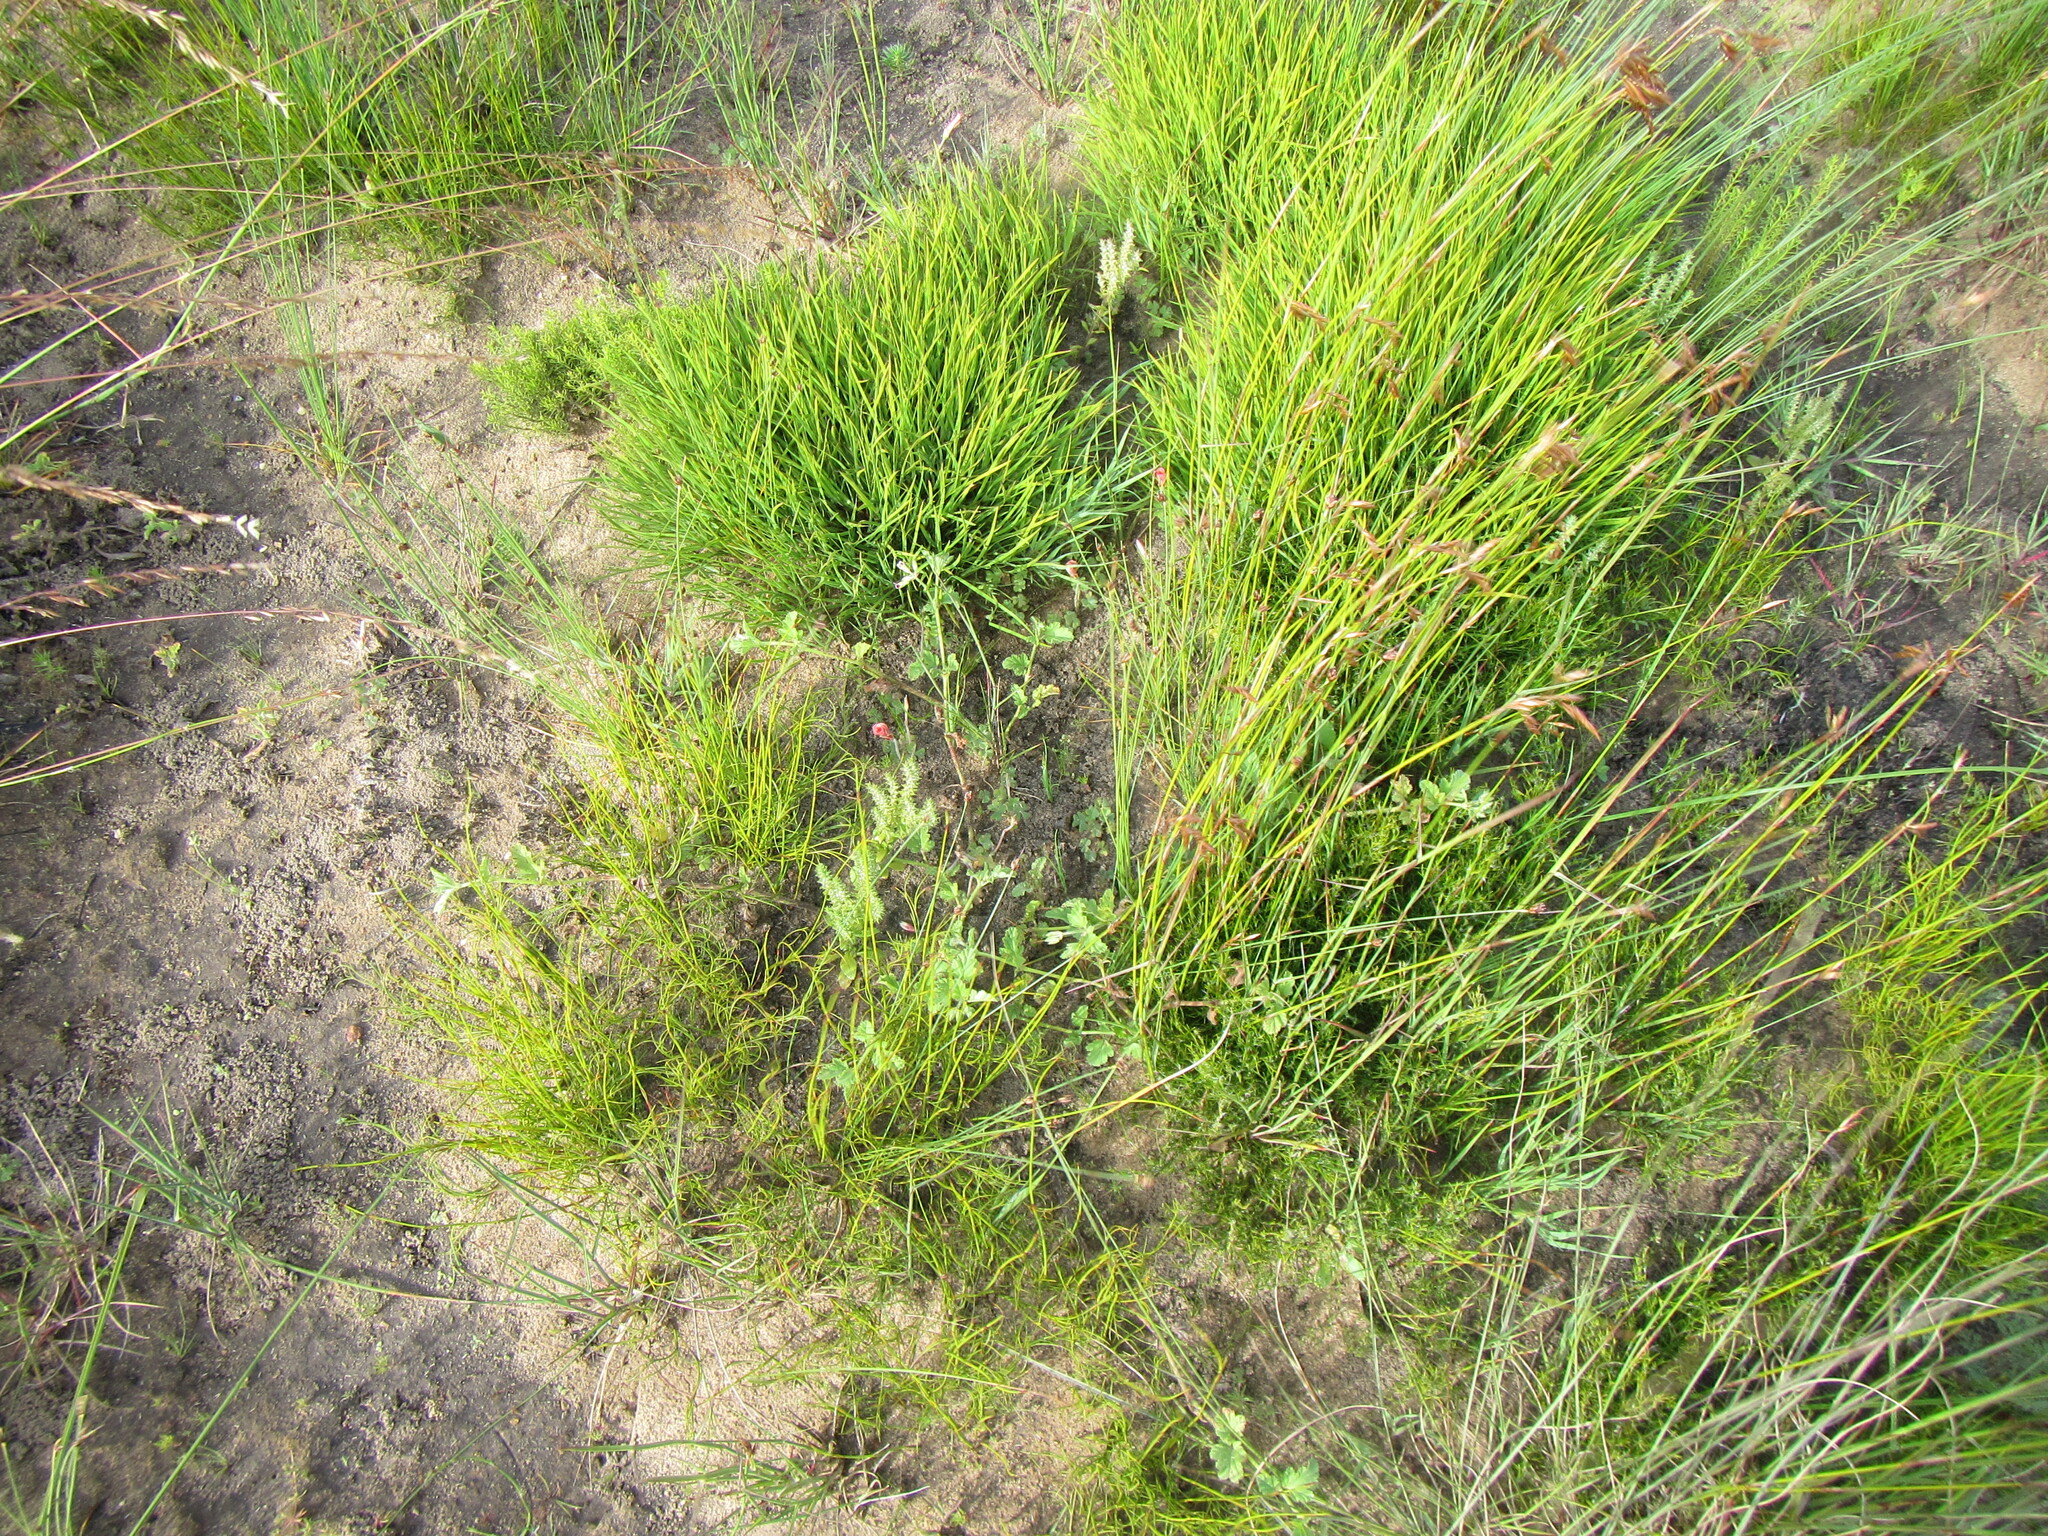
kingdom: Plantae
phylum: Tracheophyta
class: Magnoliopsida
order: Geraniales
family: Geraniaceae
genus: Pelargonium
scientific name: Pelargonium althaeoides
